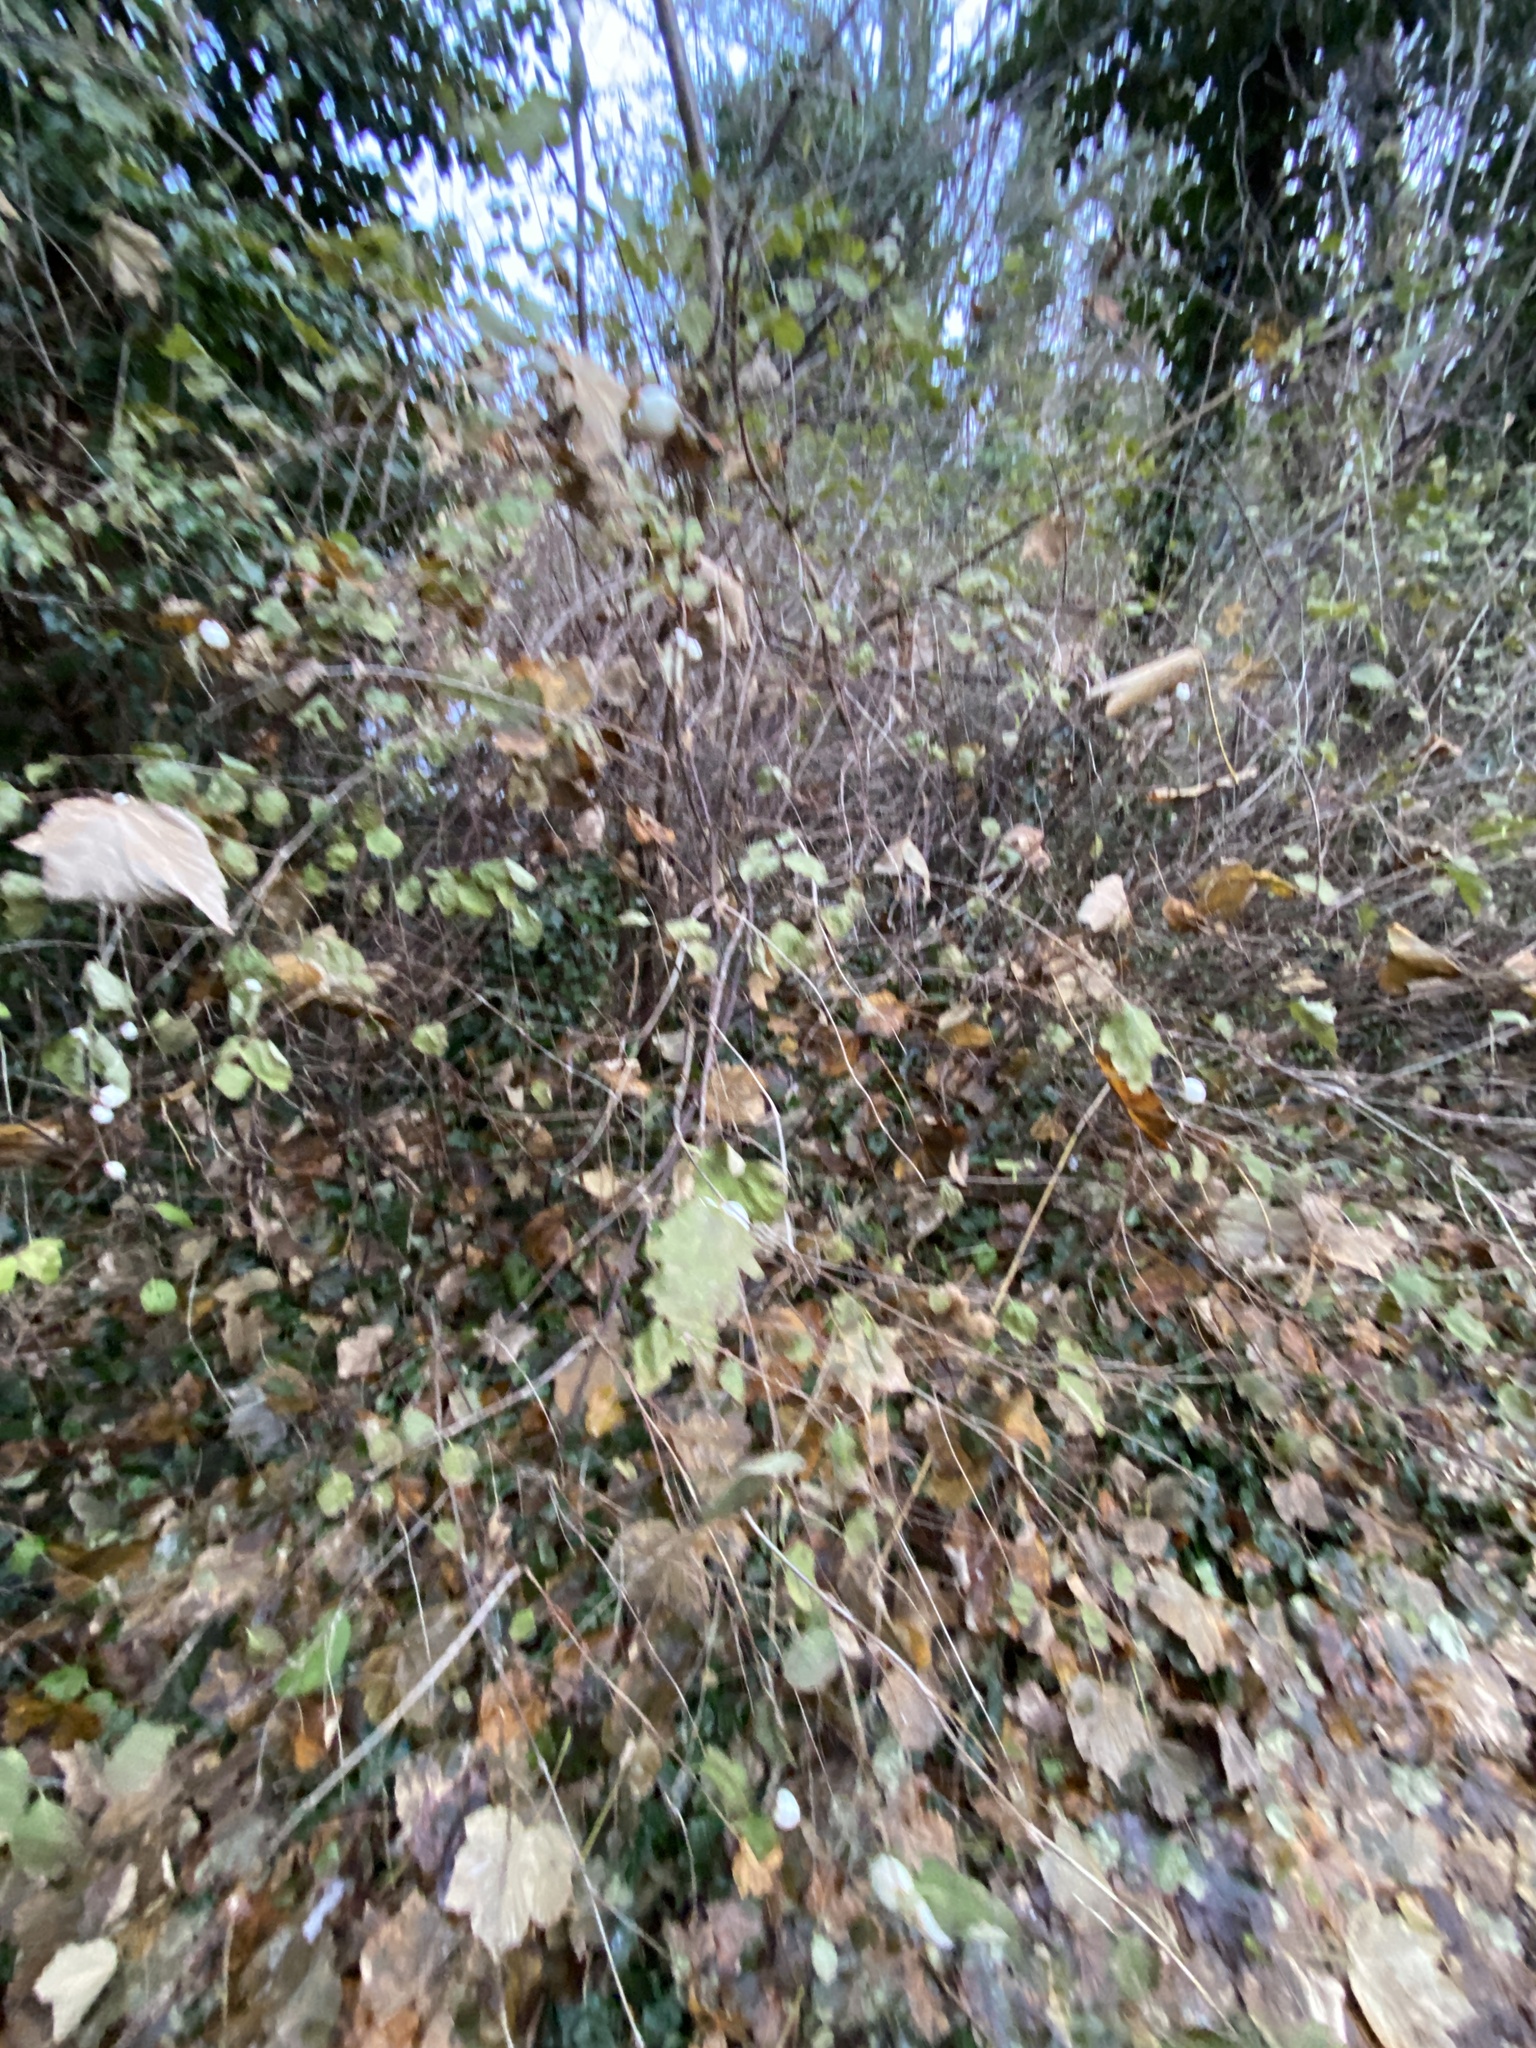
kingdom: Plantae
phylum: Tracheophyta
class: Magnoliopsida
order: Dipsacales
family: Caprifoliaceae
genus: Symphoricarpos
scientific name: Symphoricarpos albus
